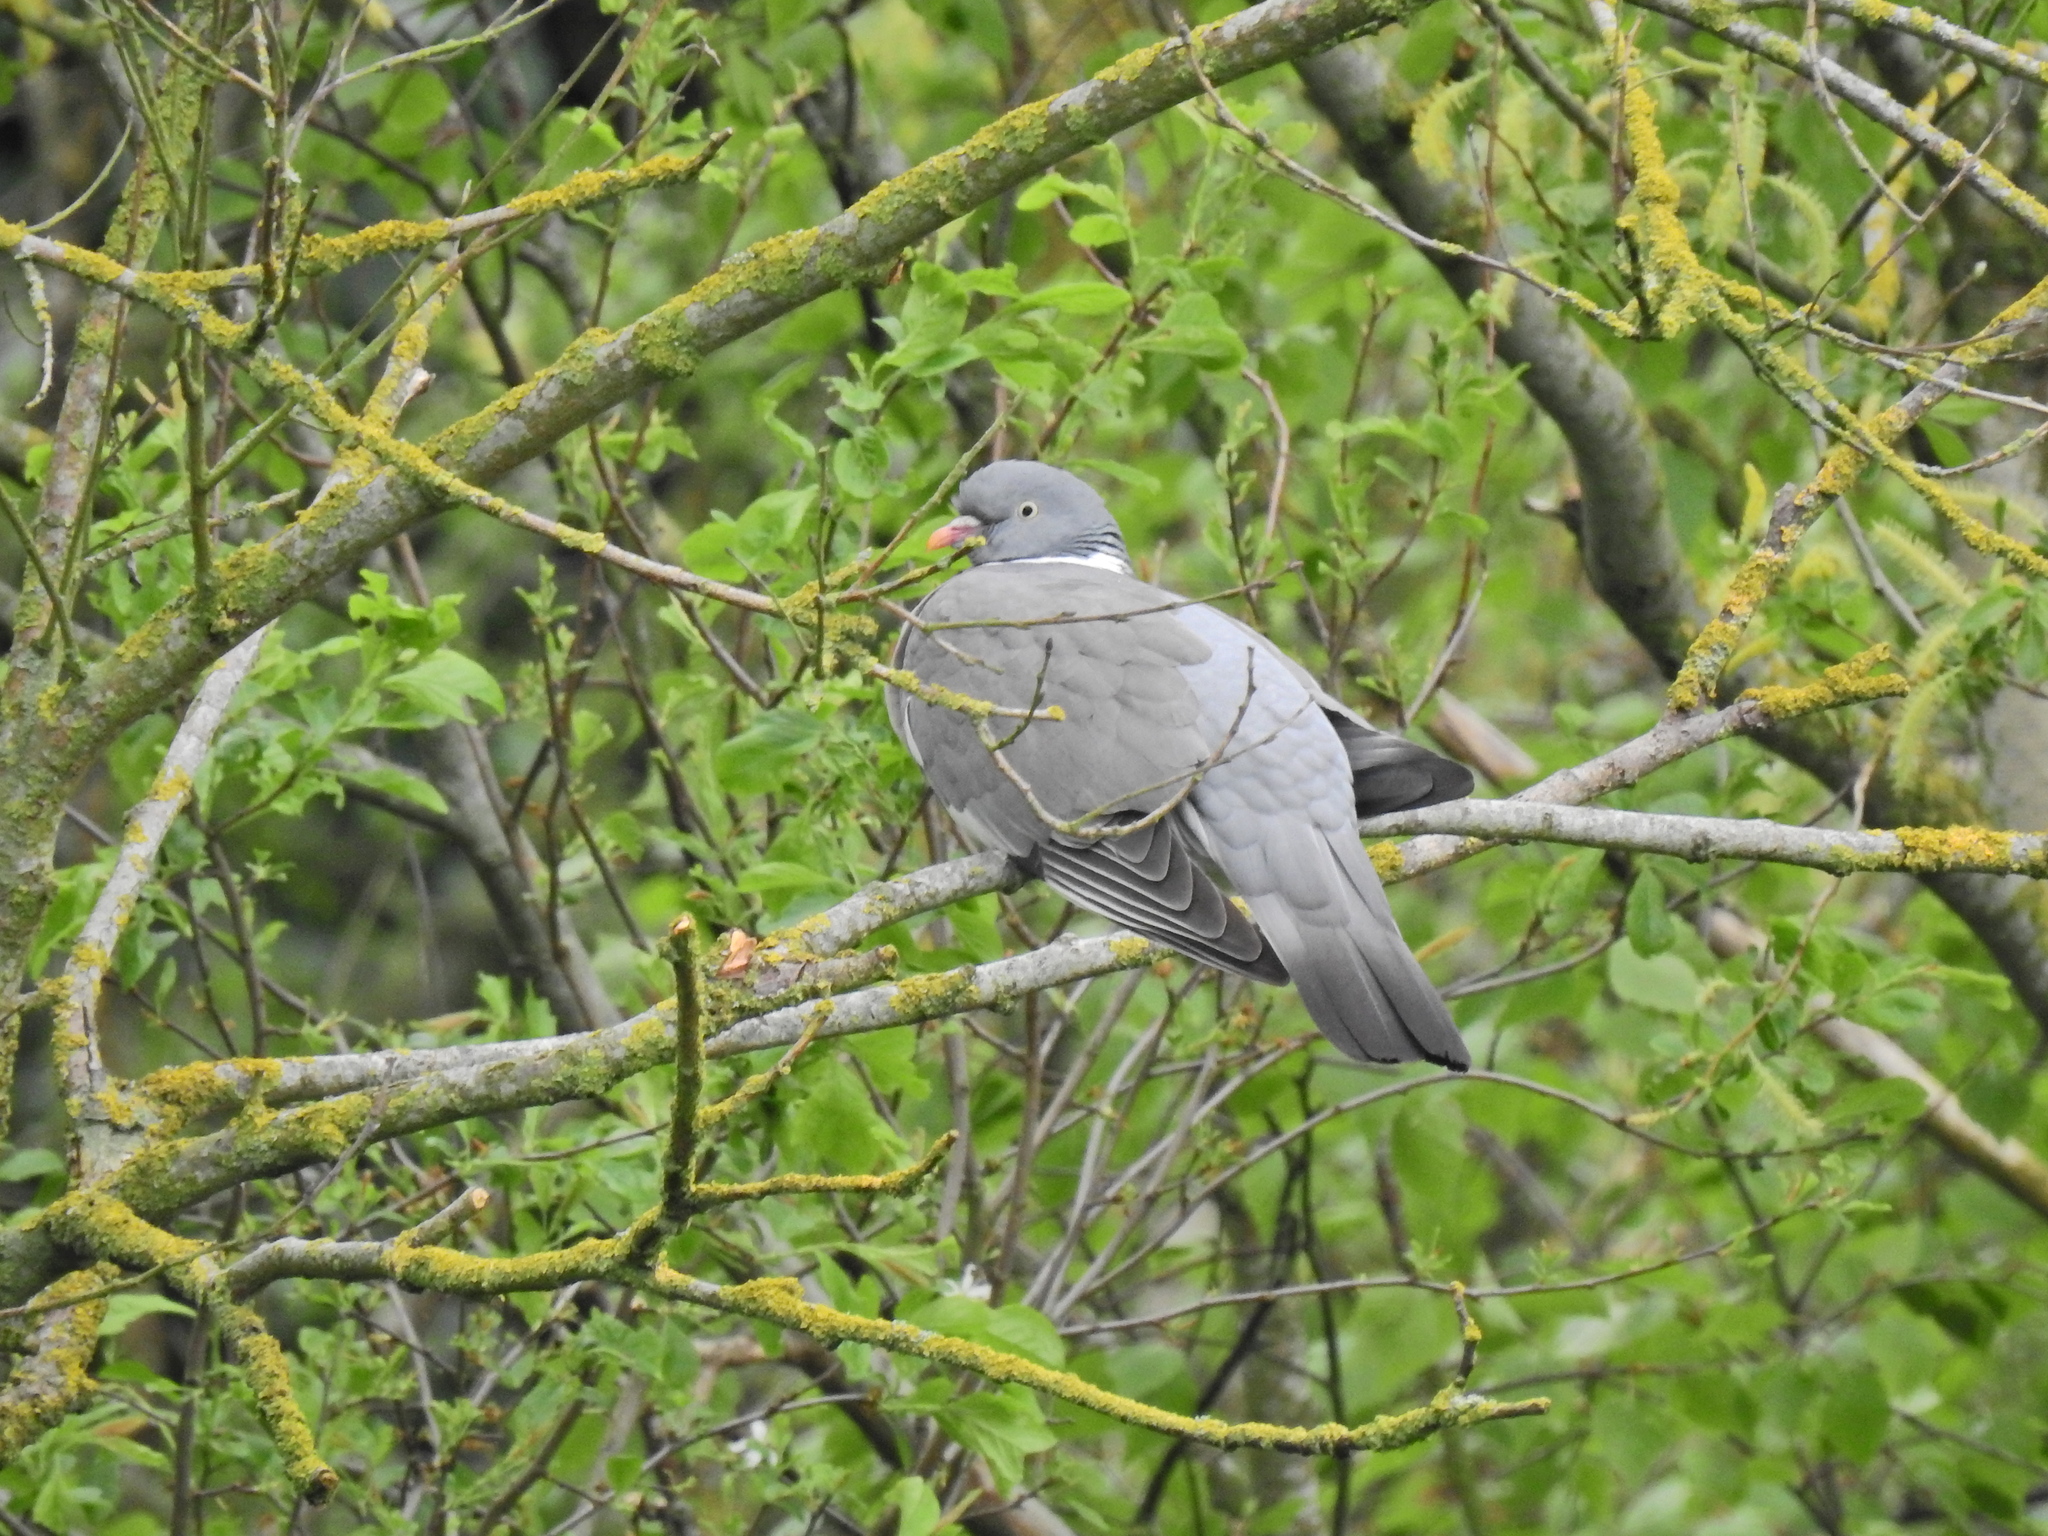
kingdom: Animalia
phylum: Chordata
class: Aves
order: Columbiformes
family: Columbidae
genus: Columba
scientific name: Columba palumbus
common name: Common wood pigeon
